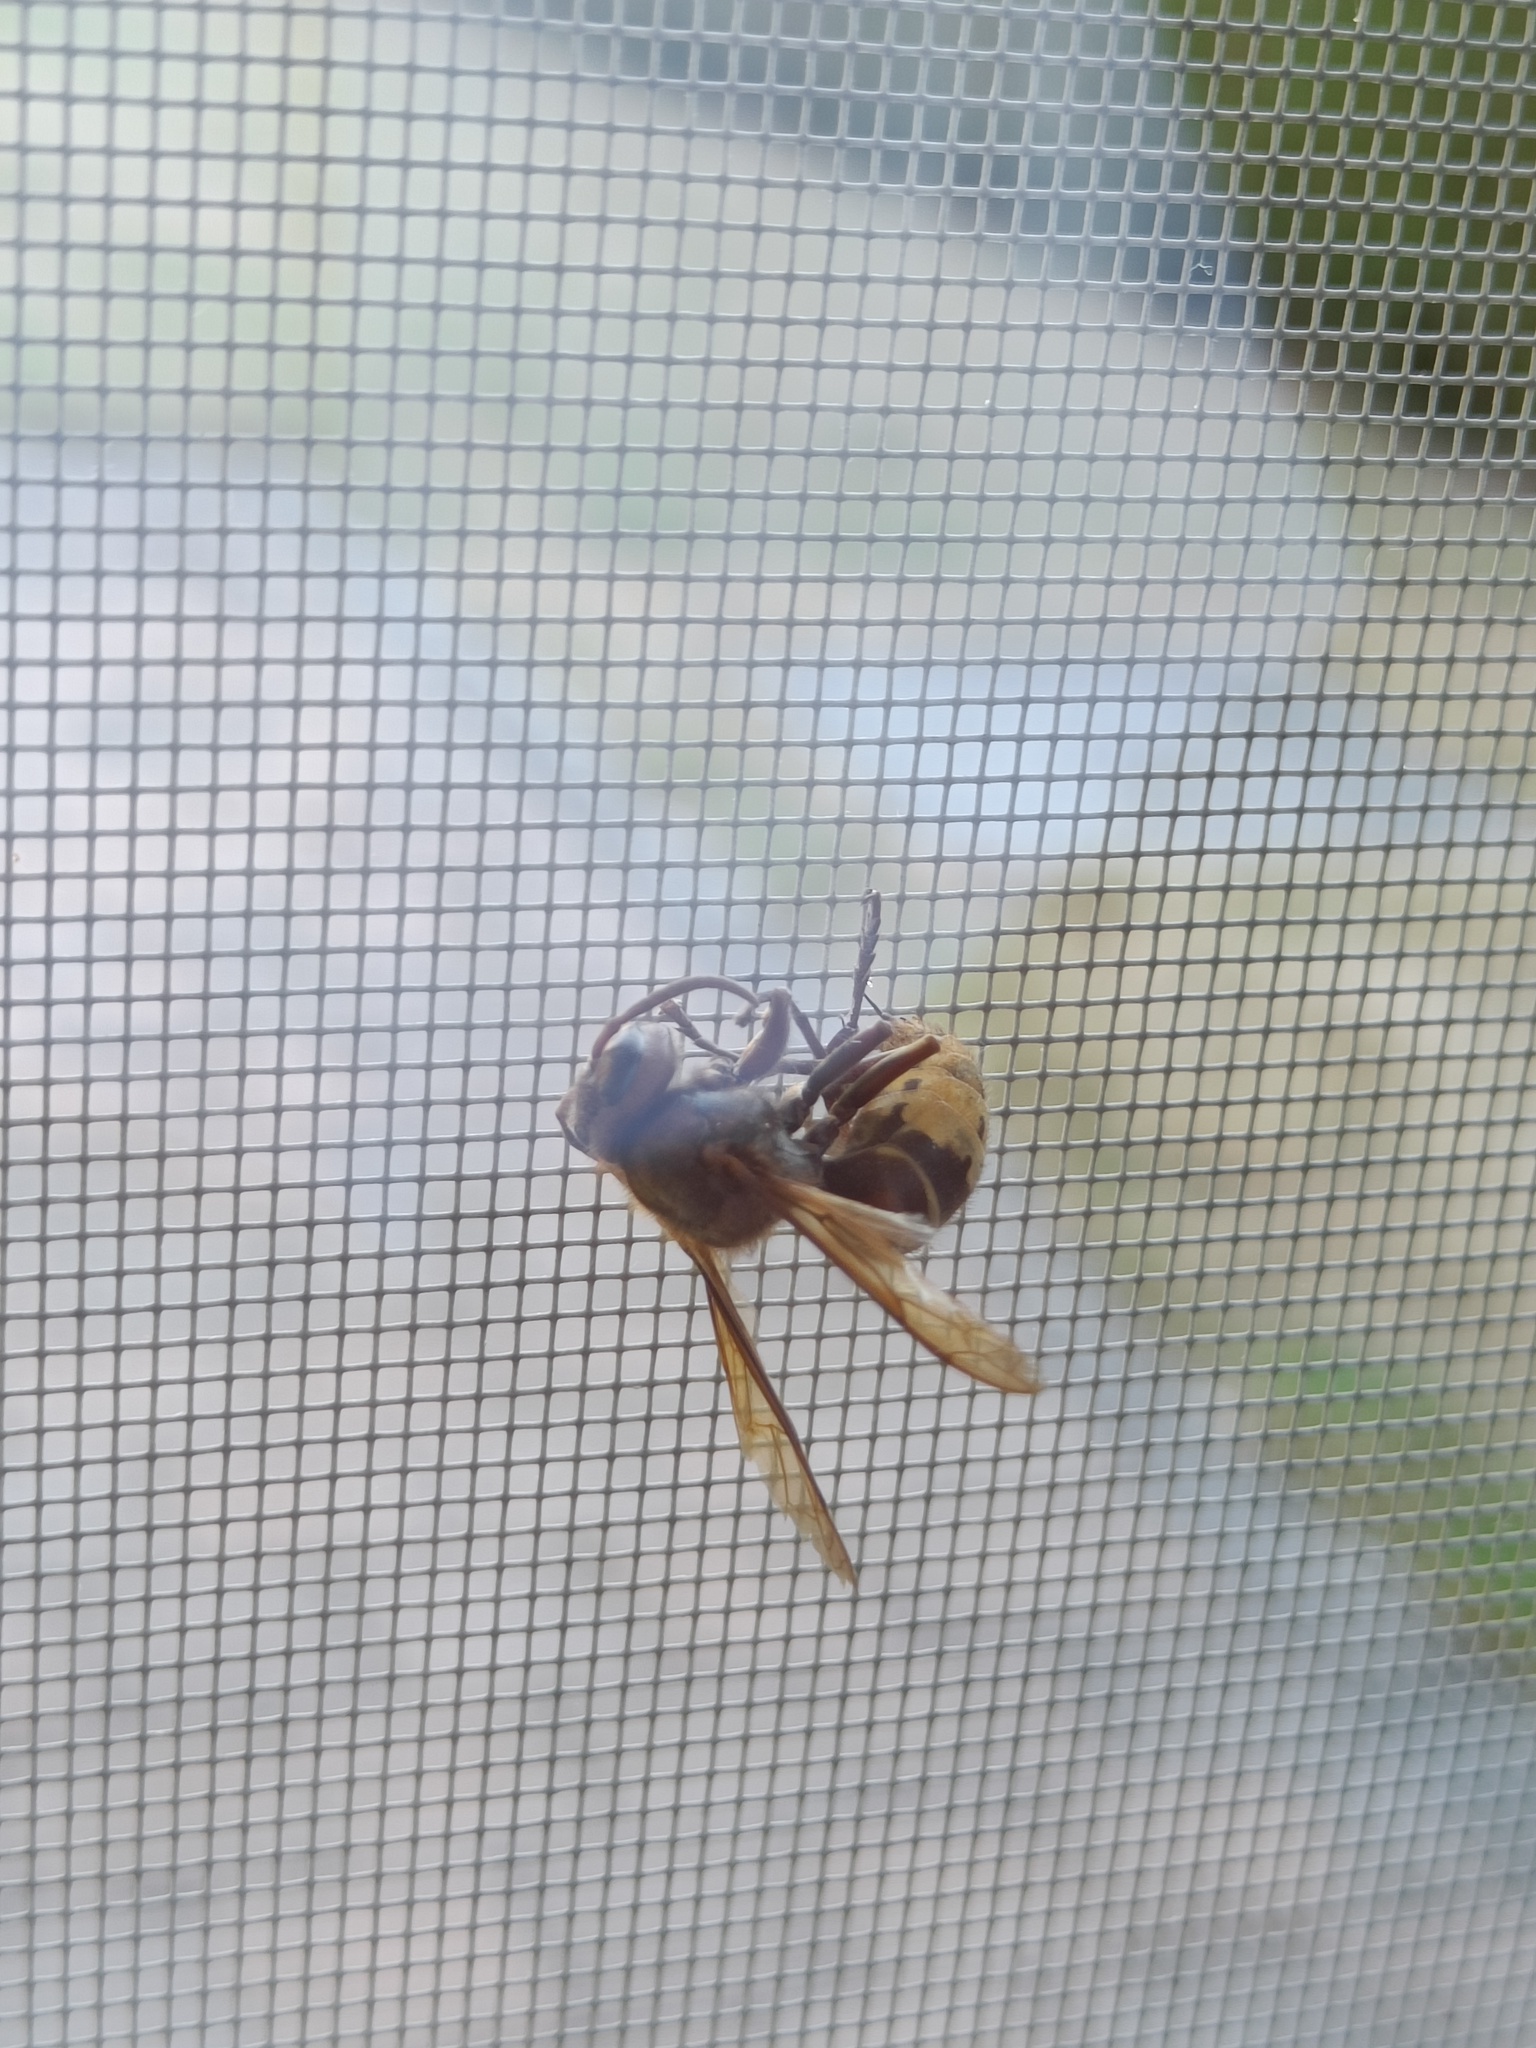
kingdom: Animalia
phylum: Arthropoda
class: Insecta
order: Hymenoptera
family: Vespidae
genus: Vespa
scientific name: Vespa crabro
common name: Hornet
